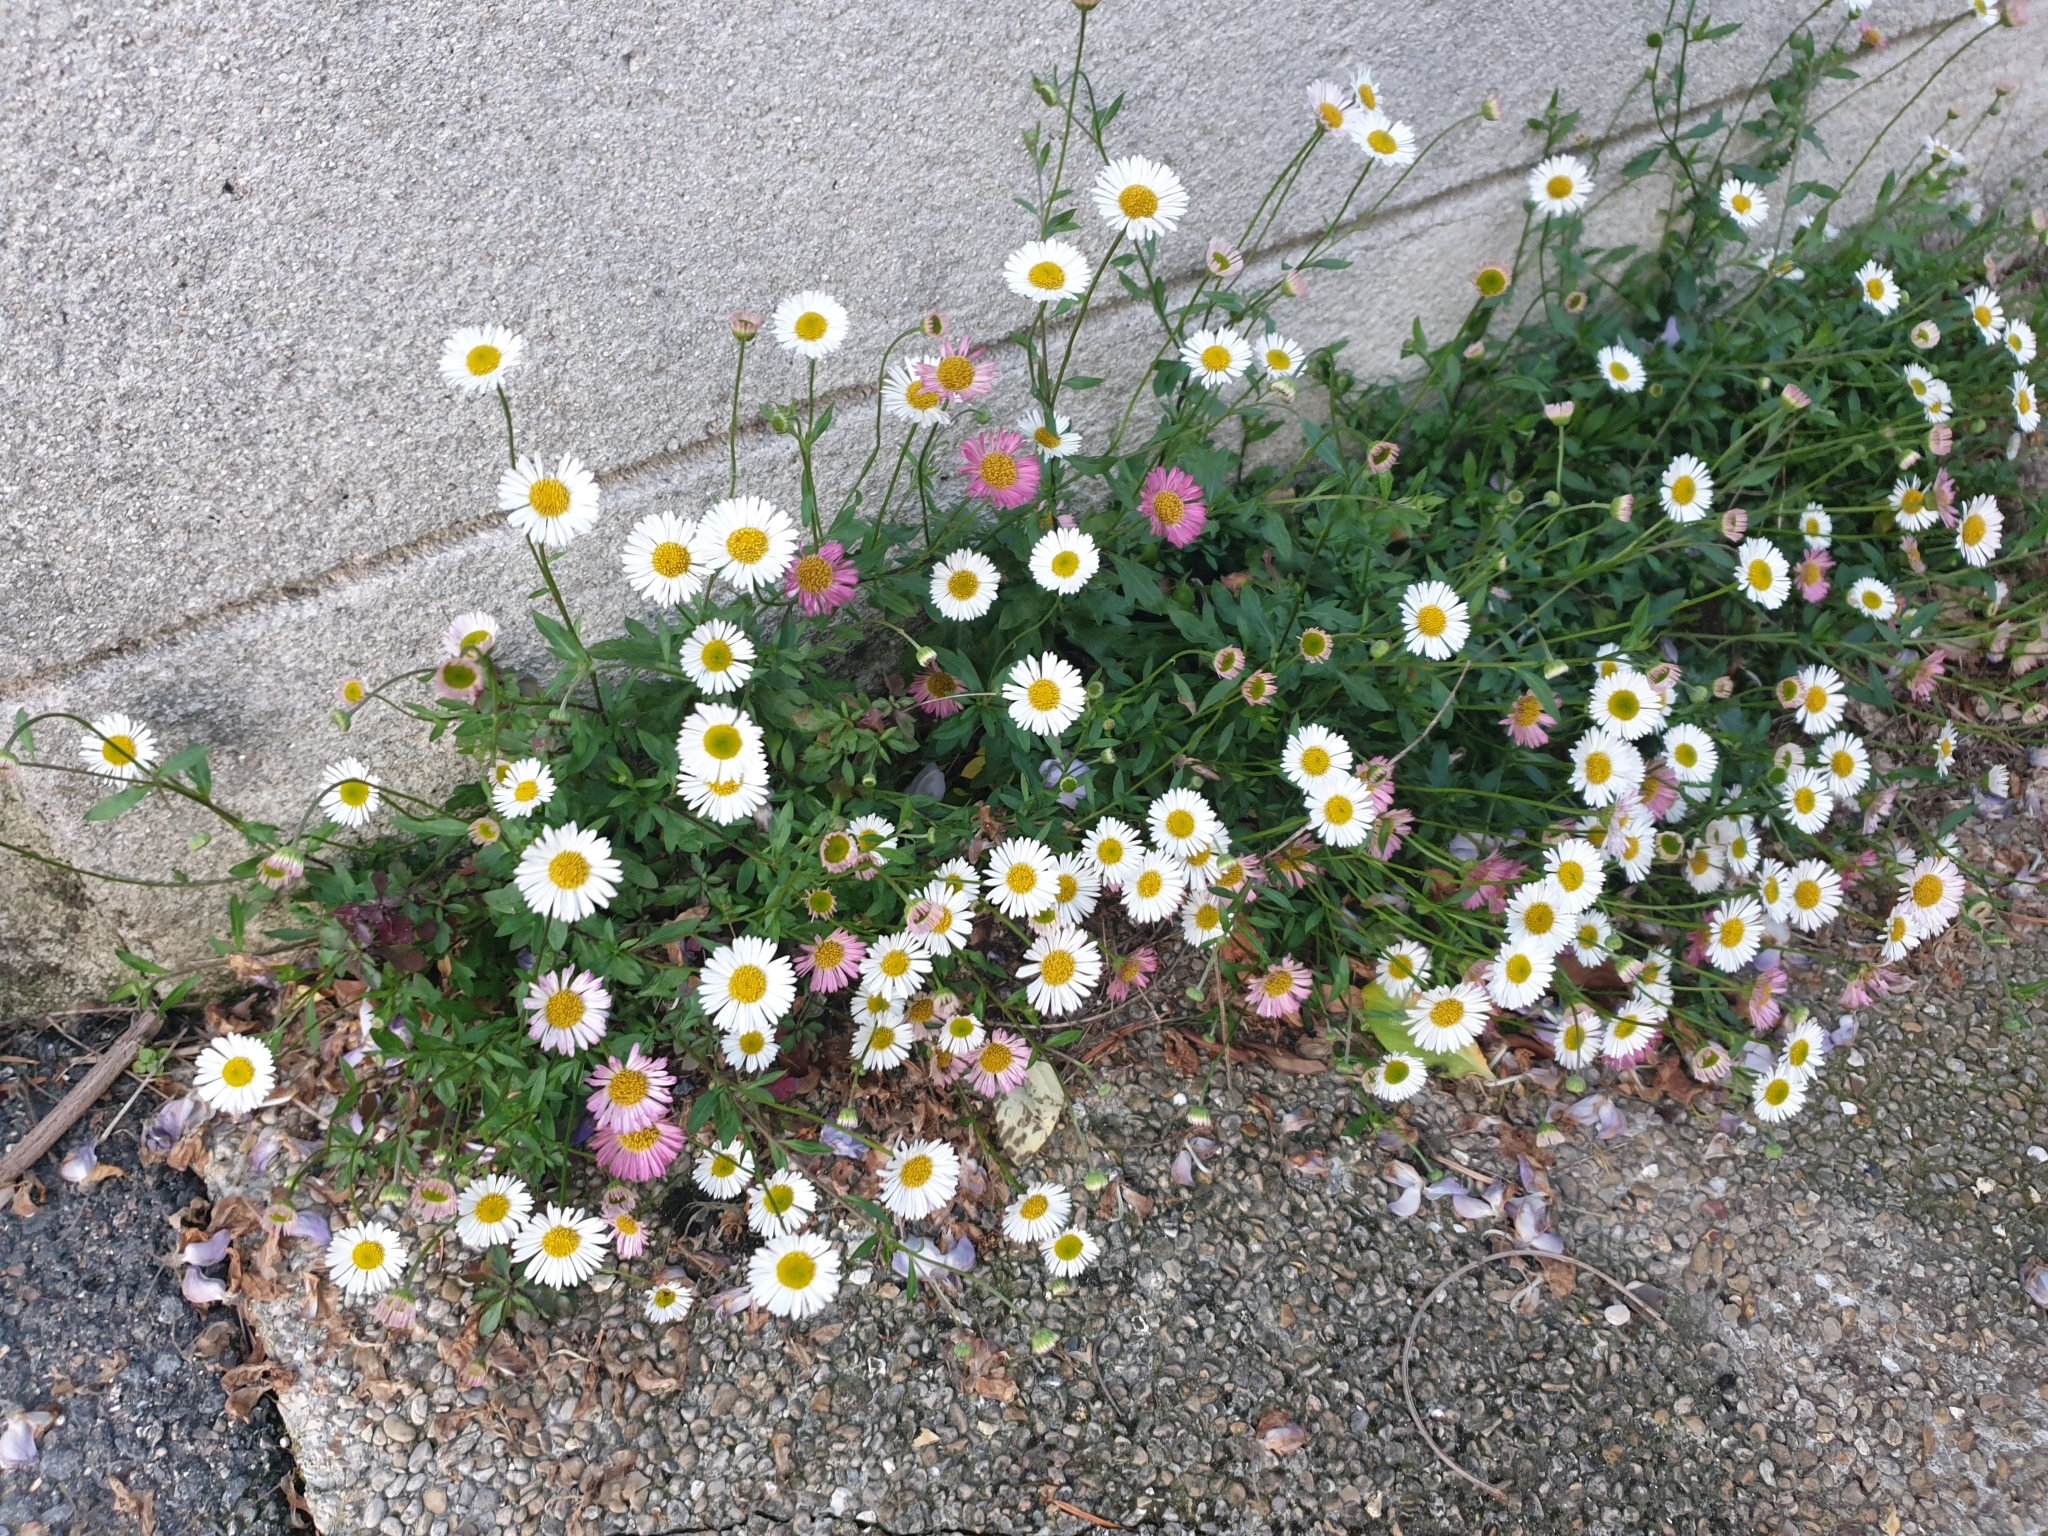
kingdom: Plantae
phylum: Tracheophyta
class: Magnoliopsida
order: Asterales
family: Asteraceae
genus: Erigeron
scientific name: Erigeron karvinskianus
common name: Mexican fleabane
